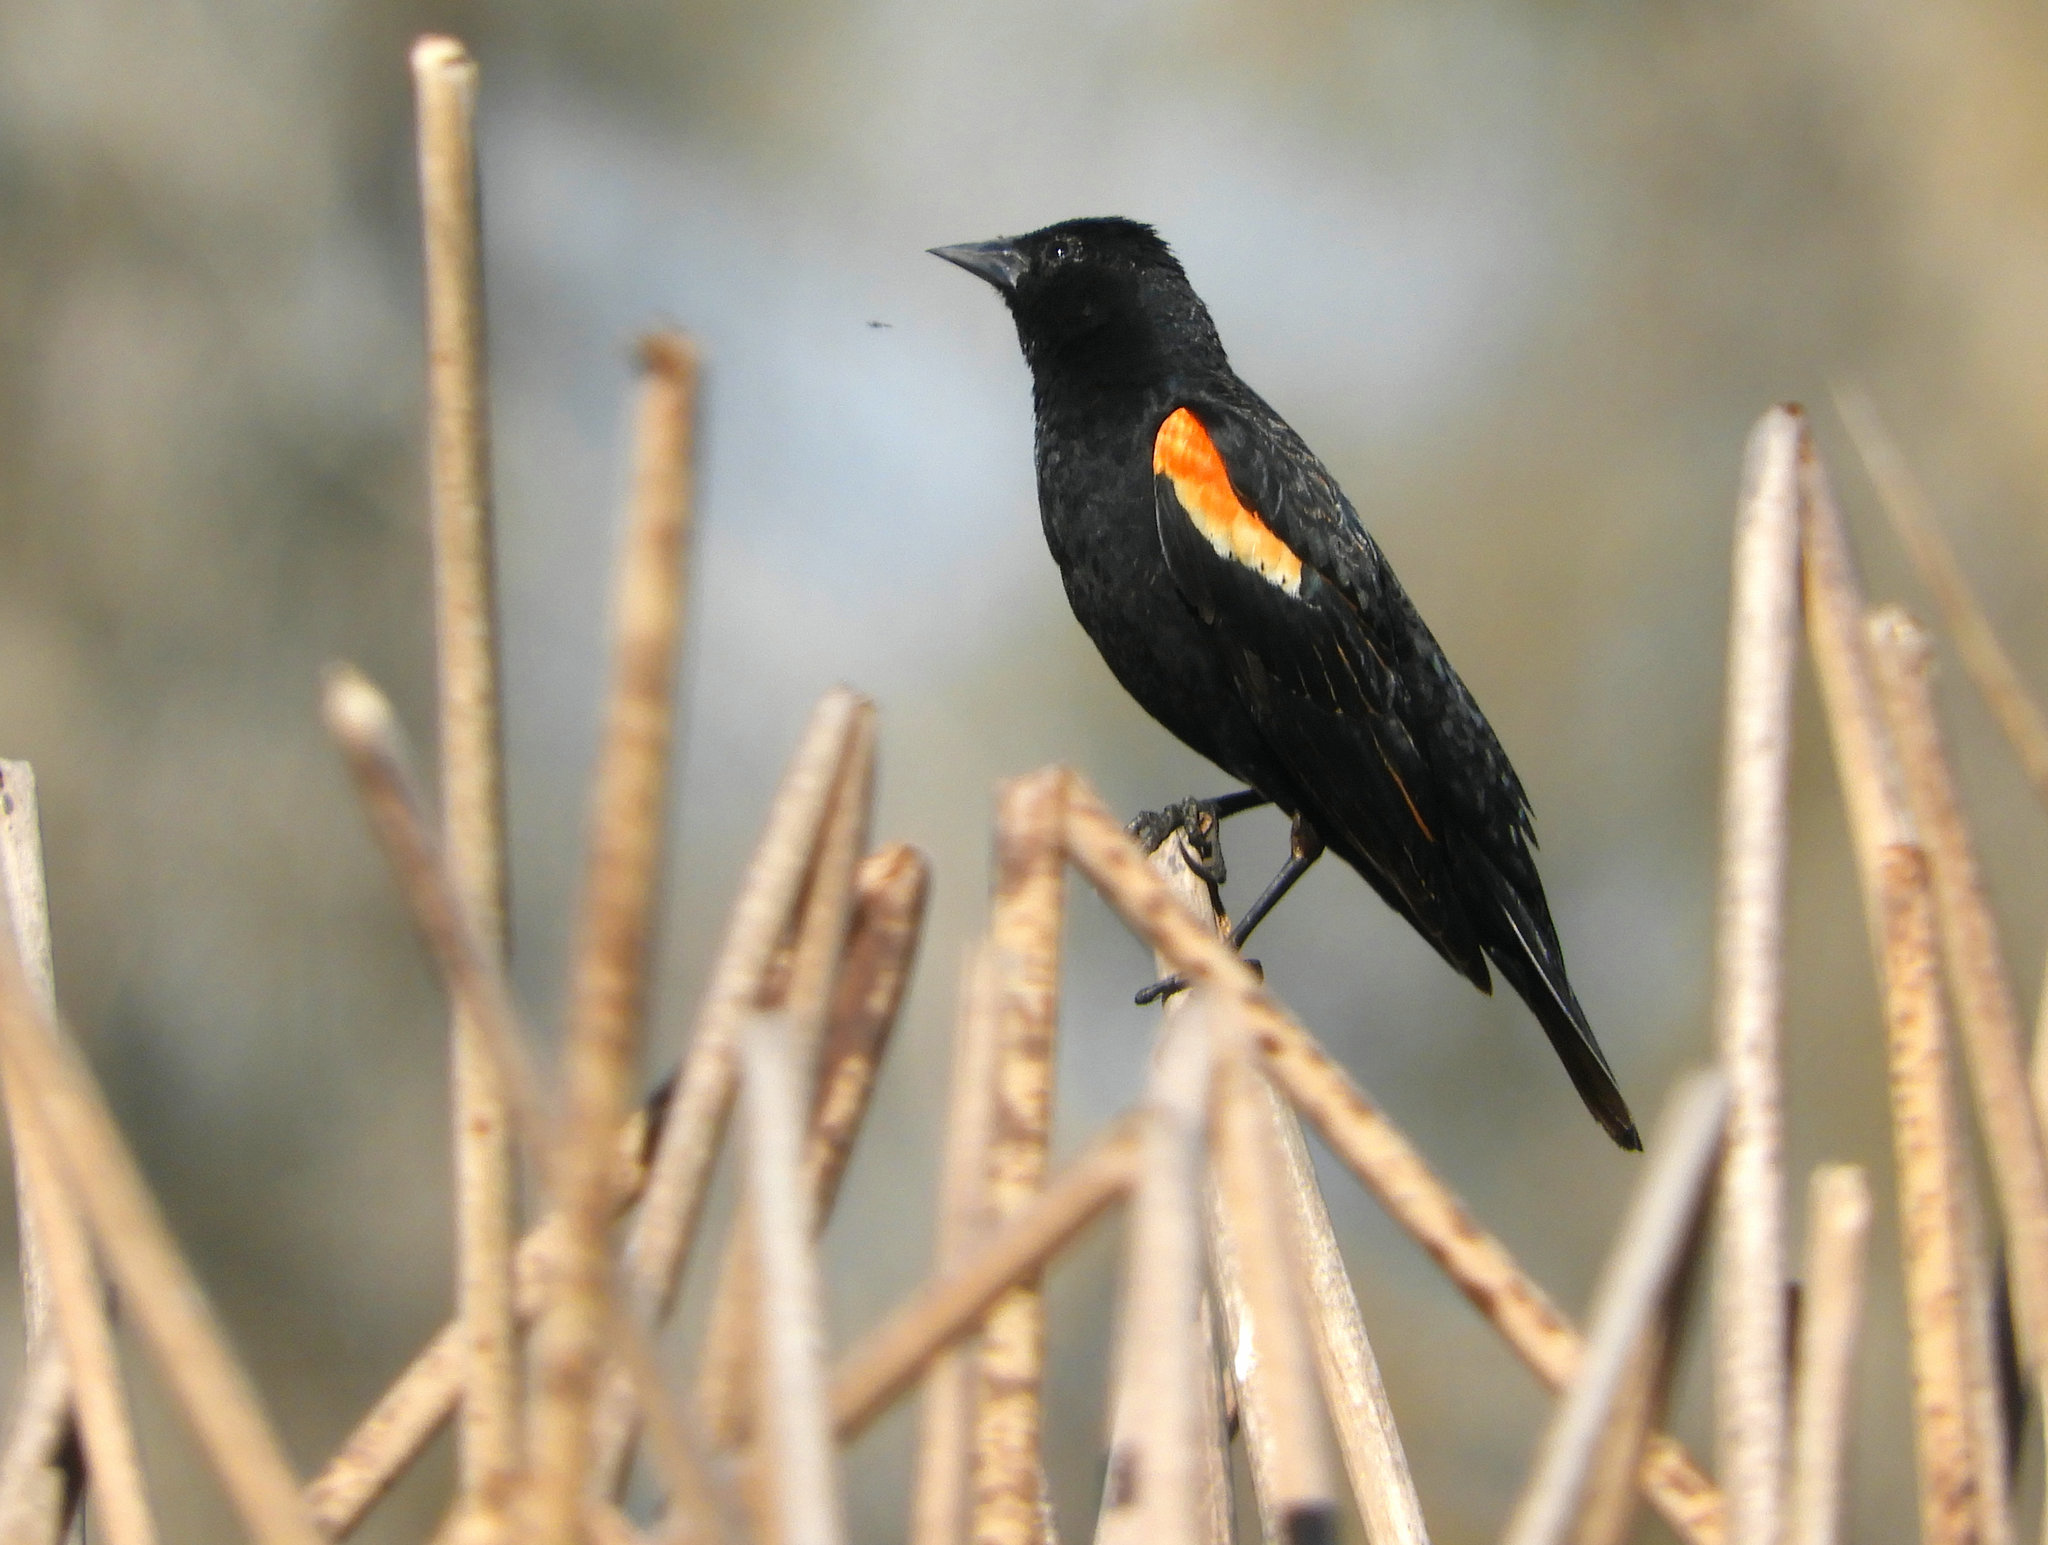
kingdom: Animalia
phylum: Chordata
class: Aves
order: Passeriformes
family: Icteridae
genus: Agelaius
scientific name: Agelaius phoeniceus
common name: Red-winged blackbird
